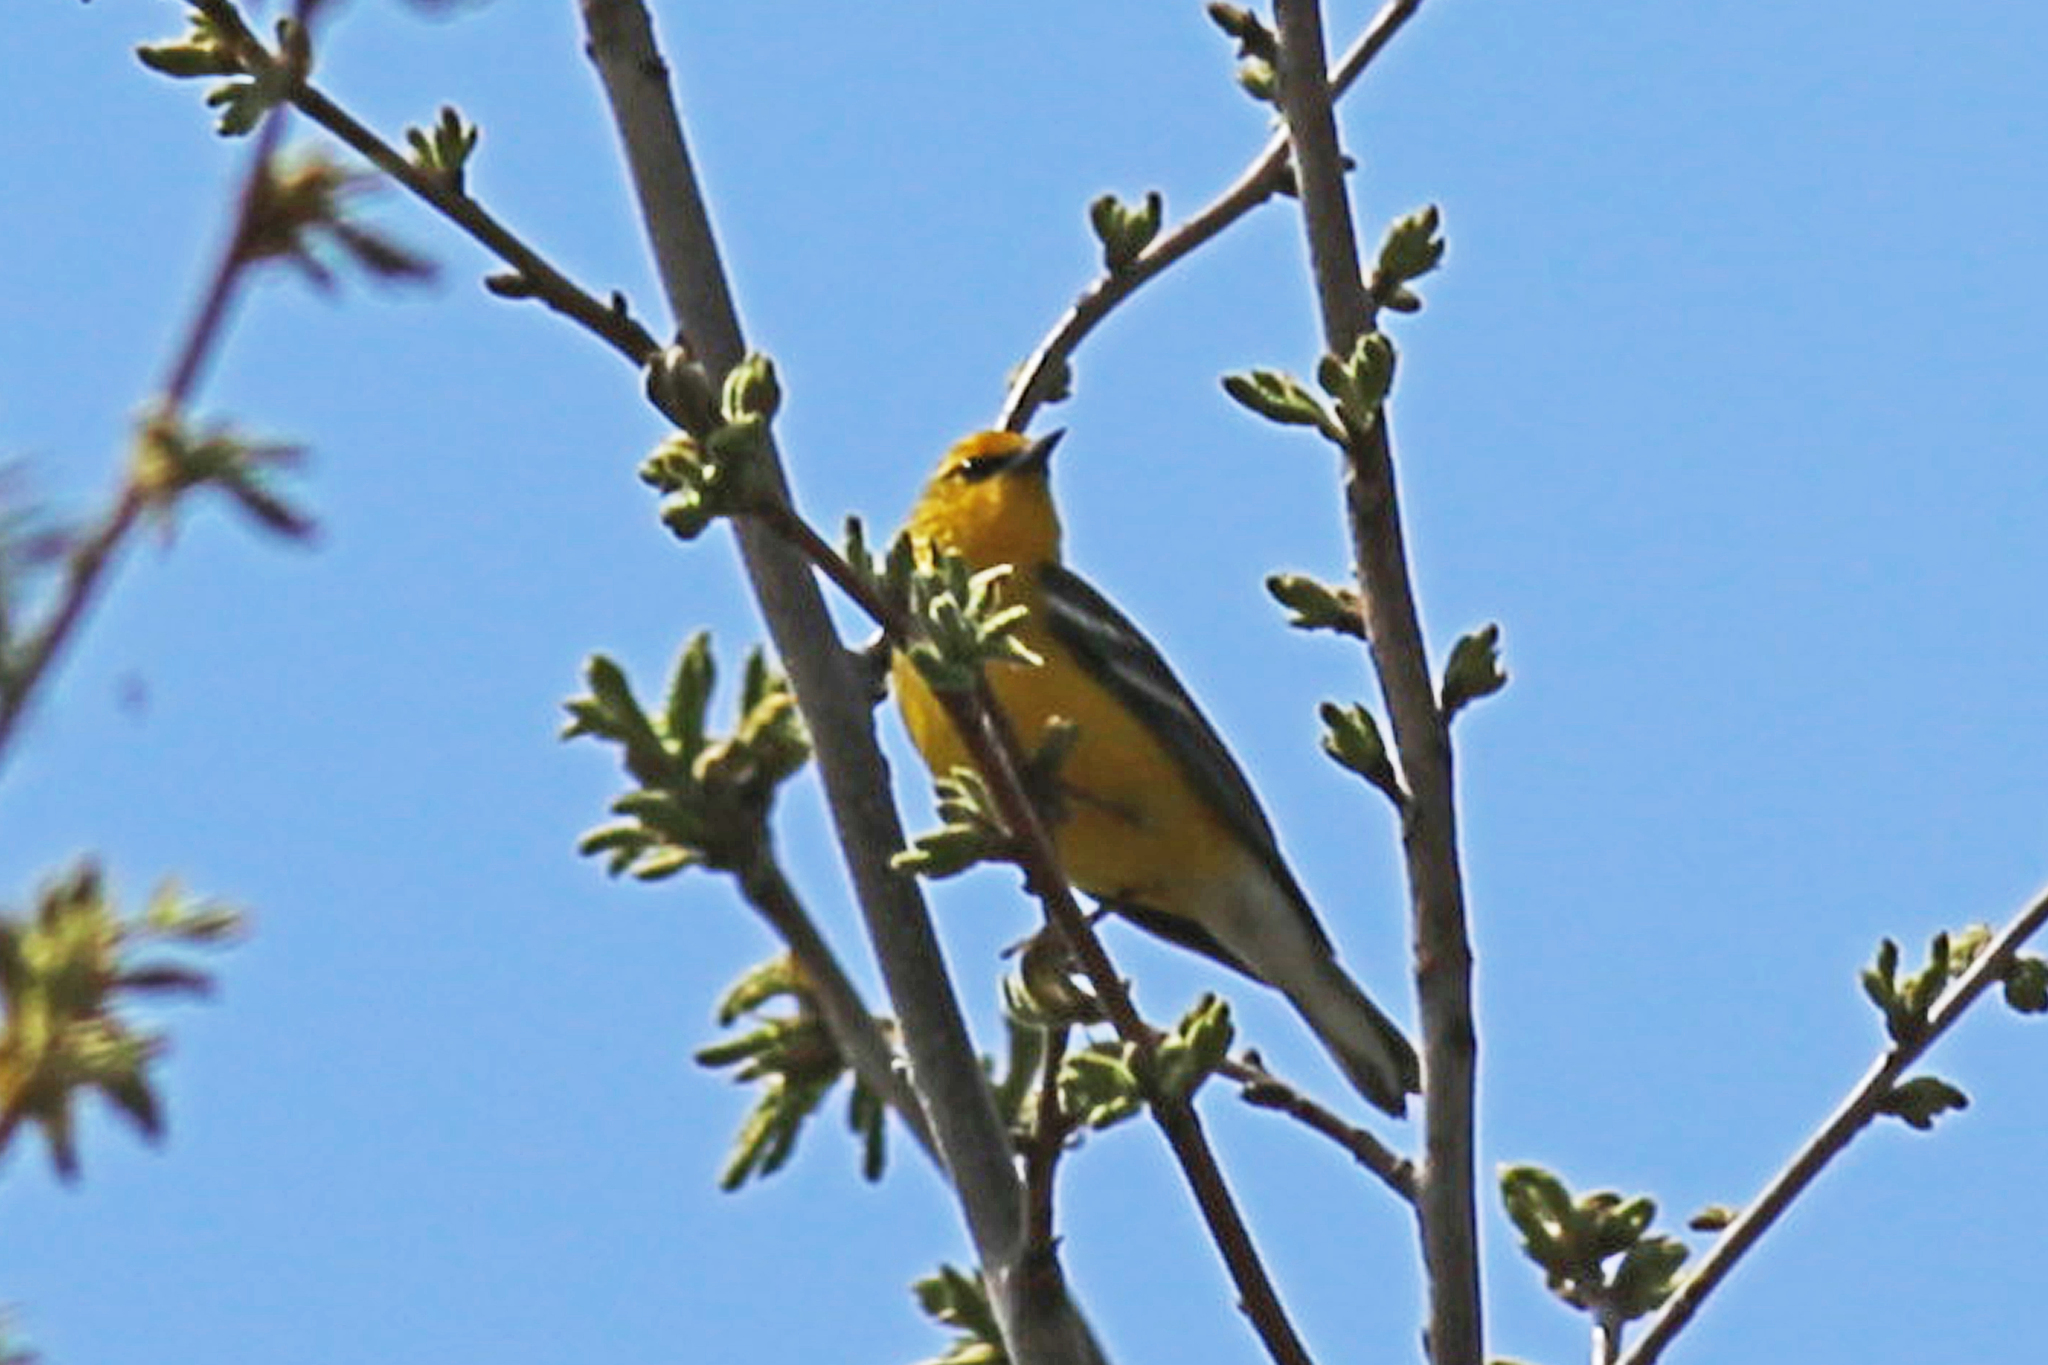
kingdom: Animalia
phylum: Chordata
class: Aves
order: Passeriformes
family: Parulidae
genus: Vermivora
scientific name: Vermivora cyanoptera
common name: Blue-winged warbler
